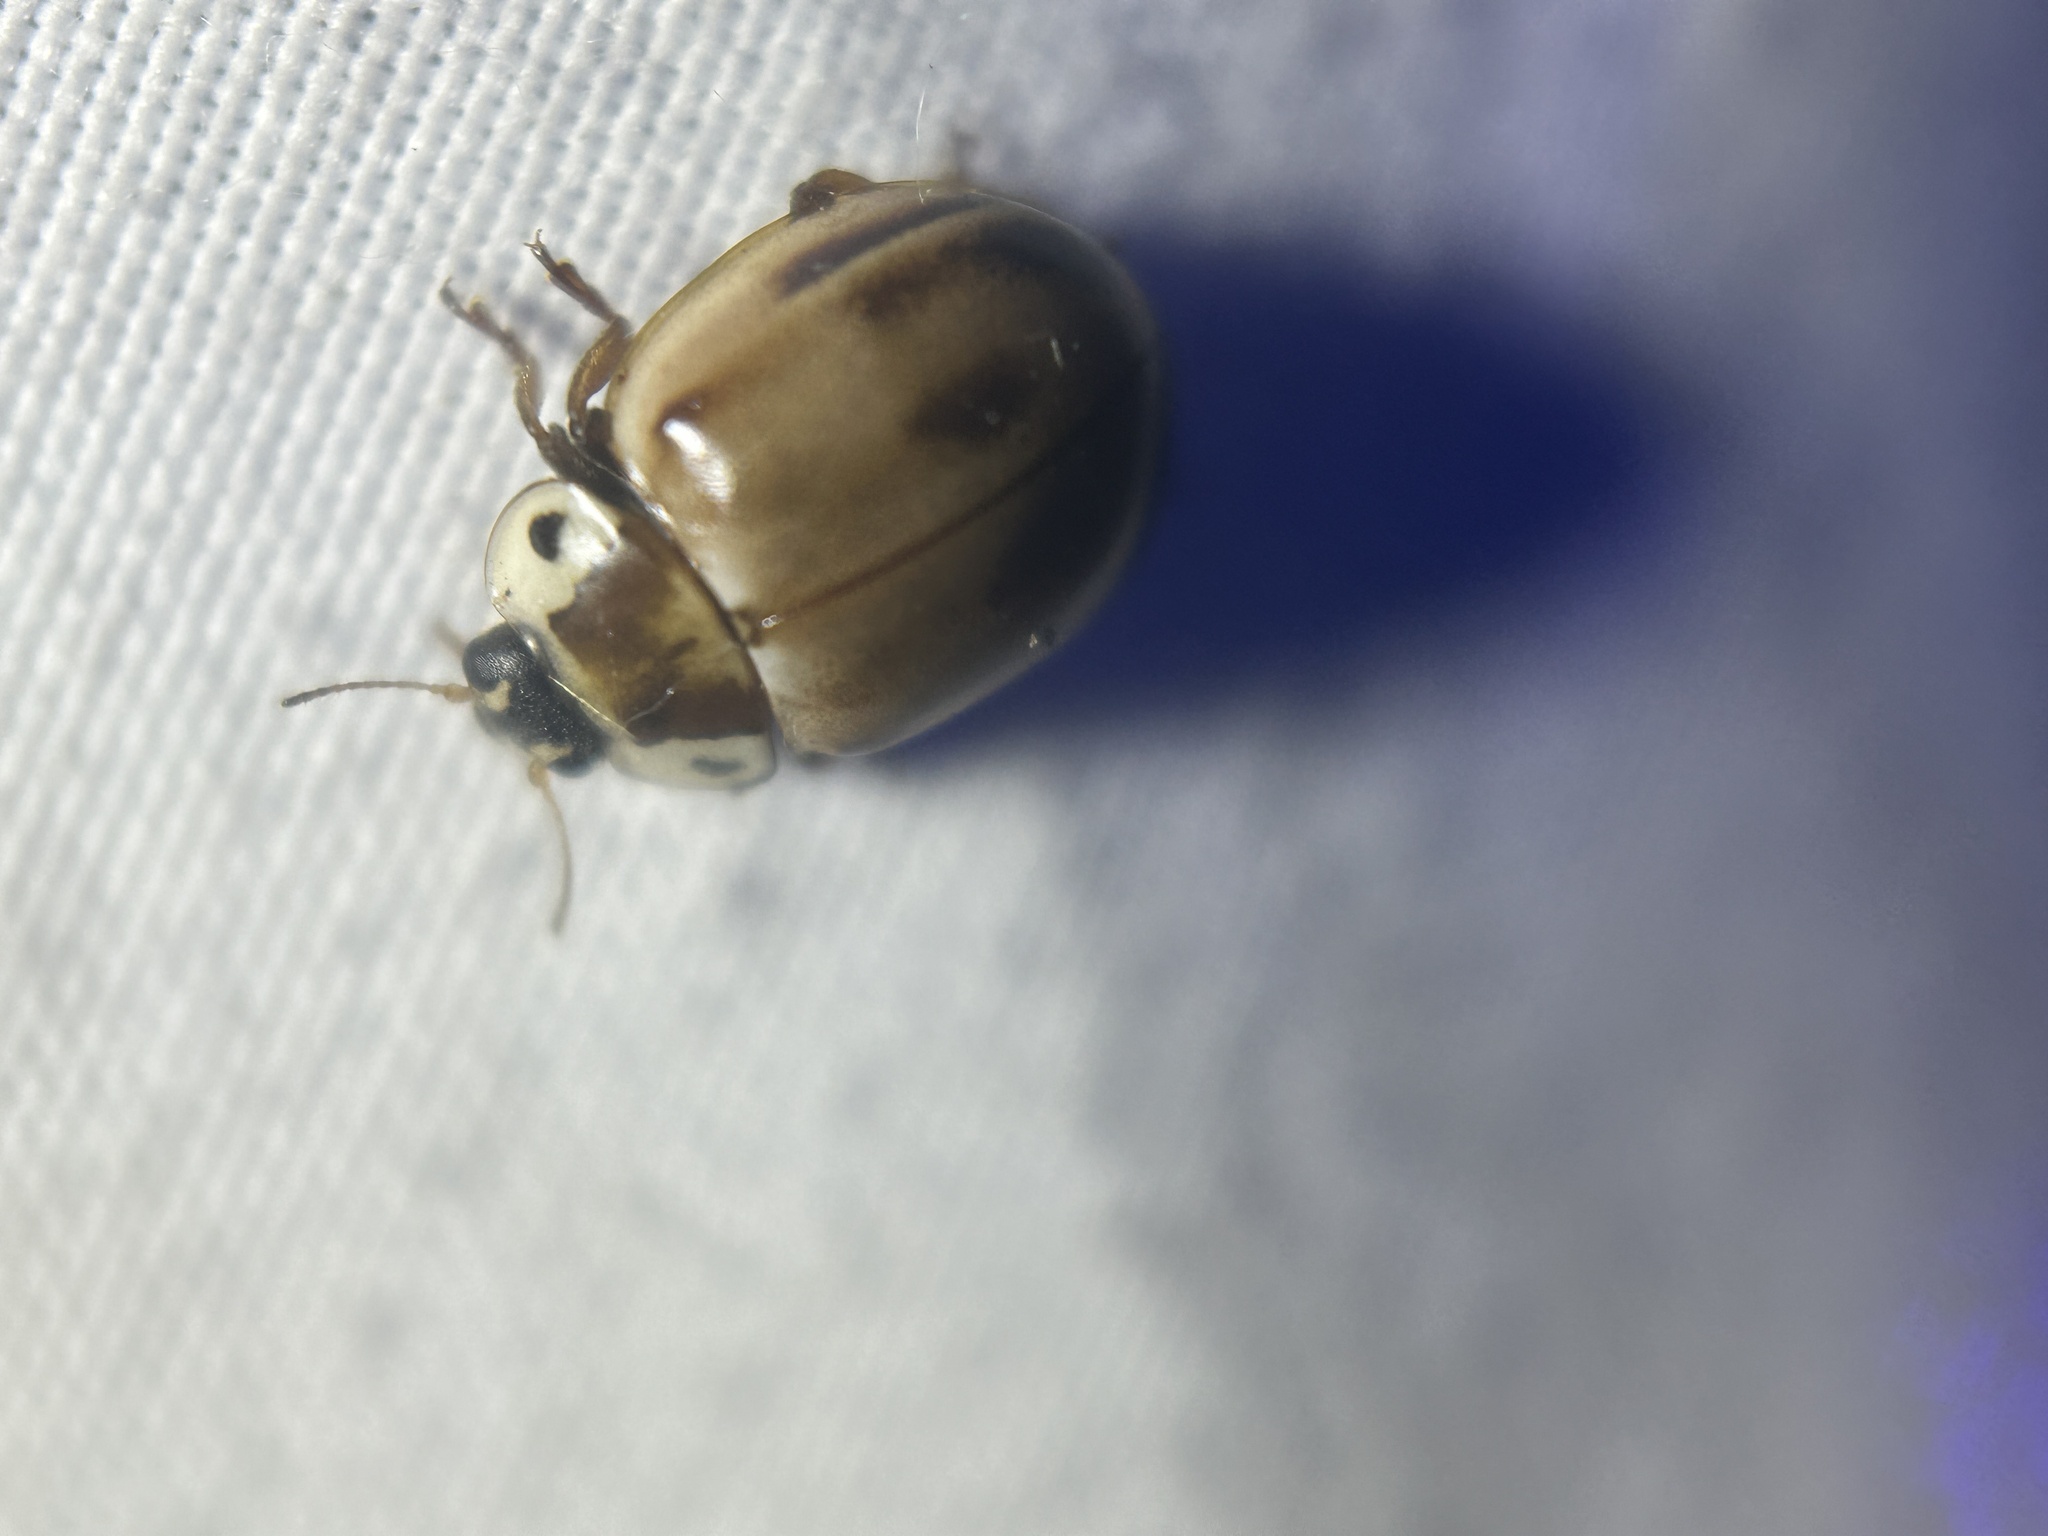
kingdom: Animalia
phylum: Arthropoda
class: Insecta
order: Coleoptera
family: Coccinellidae
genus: Myzia
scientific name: Myzia pullata
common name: Streaked lady beetle
